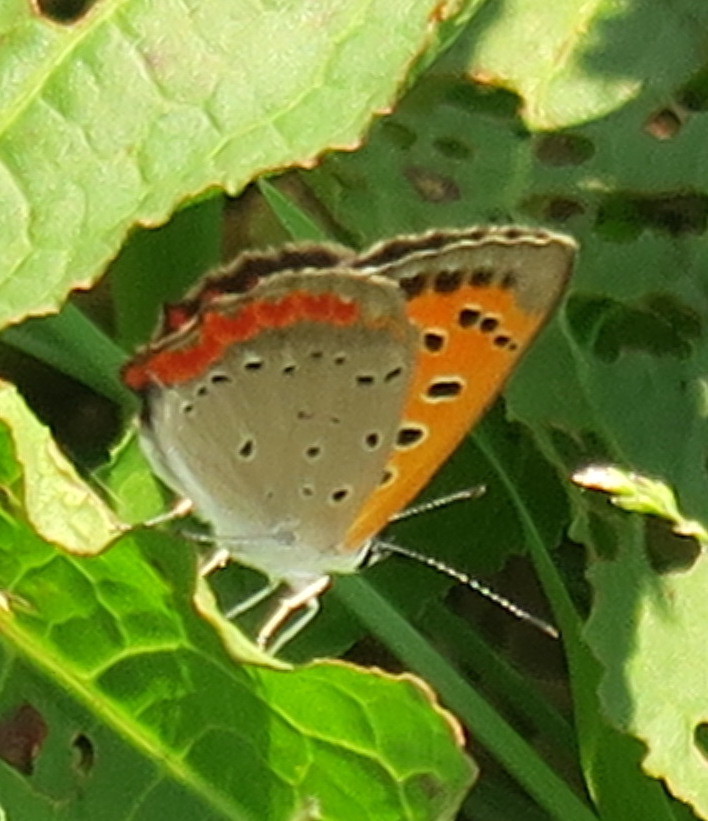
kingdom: Animalia
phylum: Arthropoda
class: Insecta
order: Lepidoptera
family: Lycaenidae
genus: Lycaena
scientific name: Lycaena phlaeas
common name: Small copper
